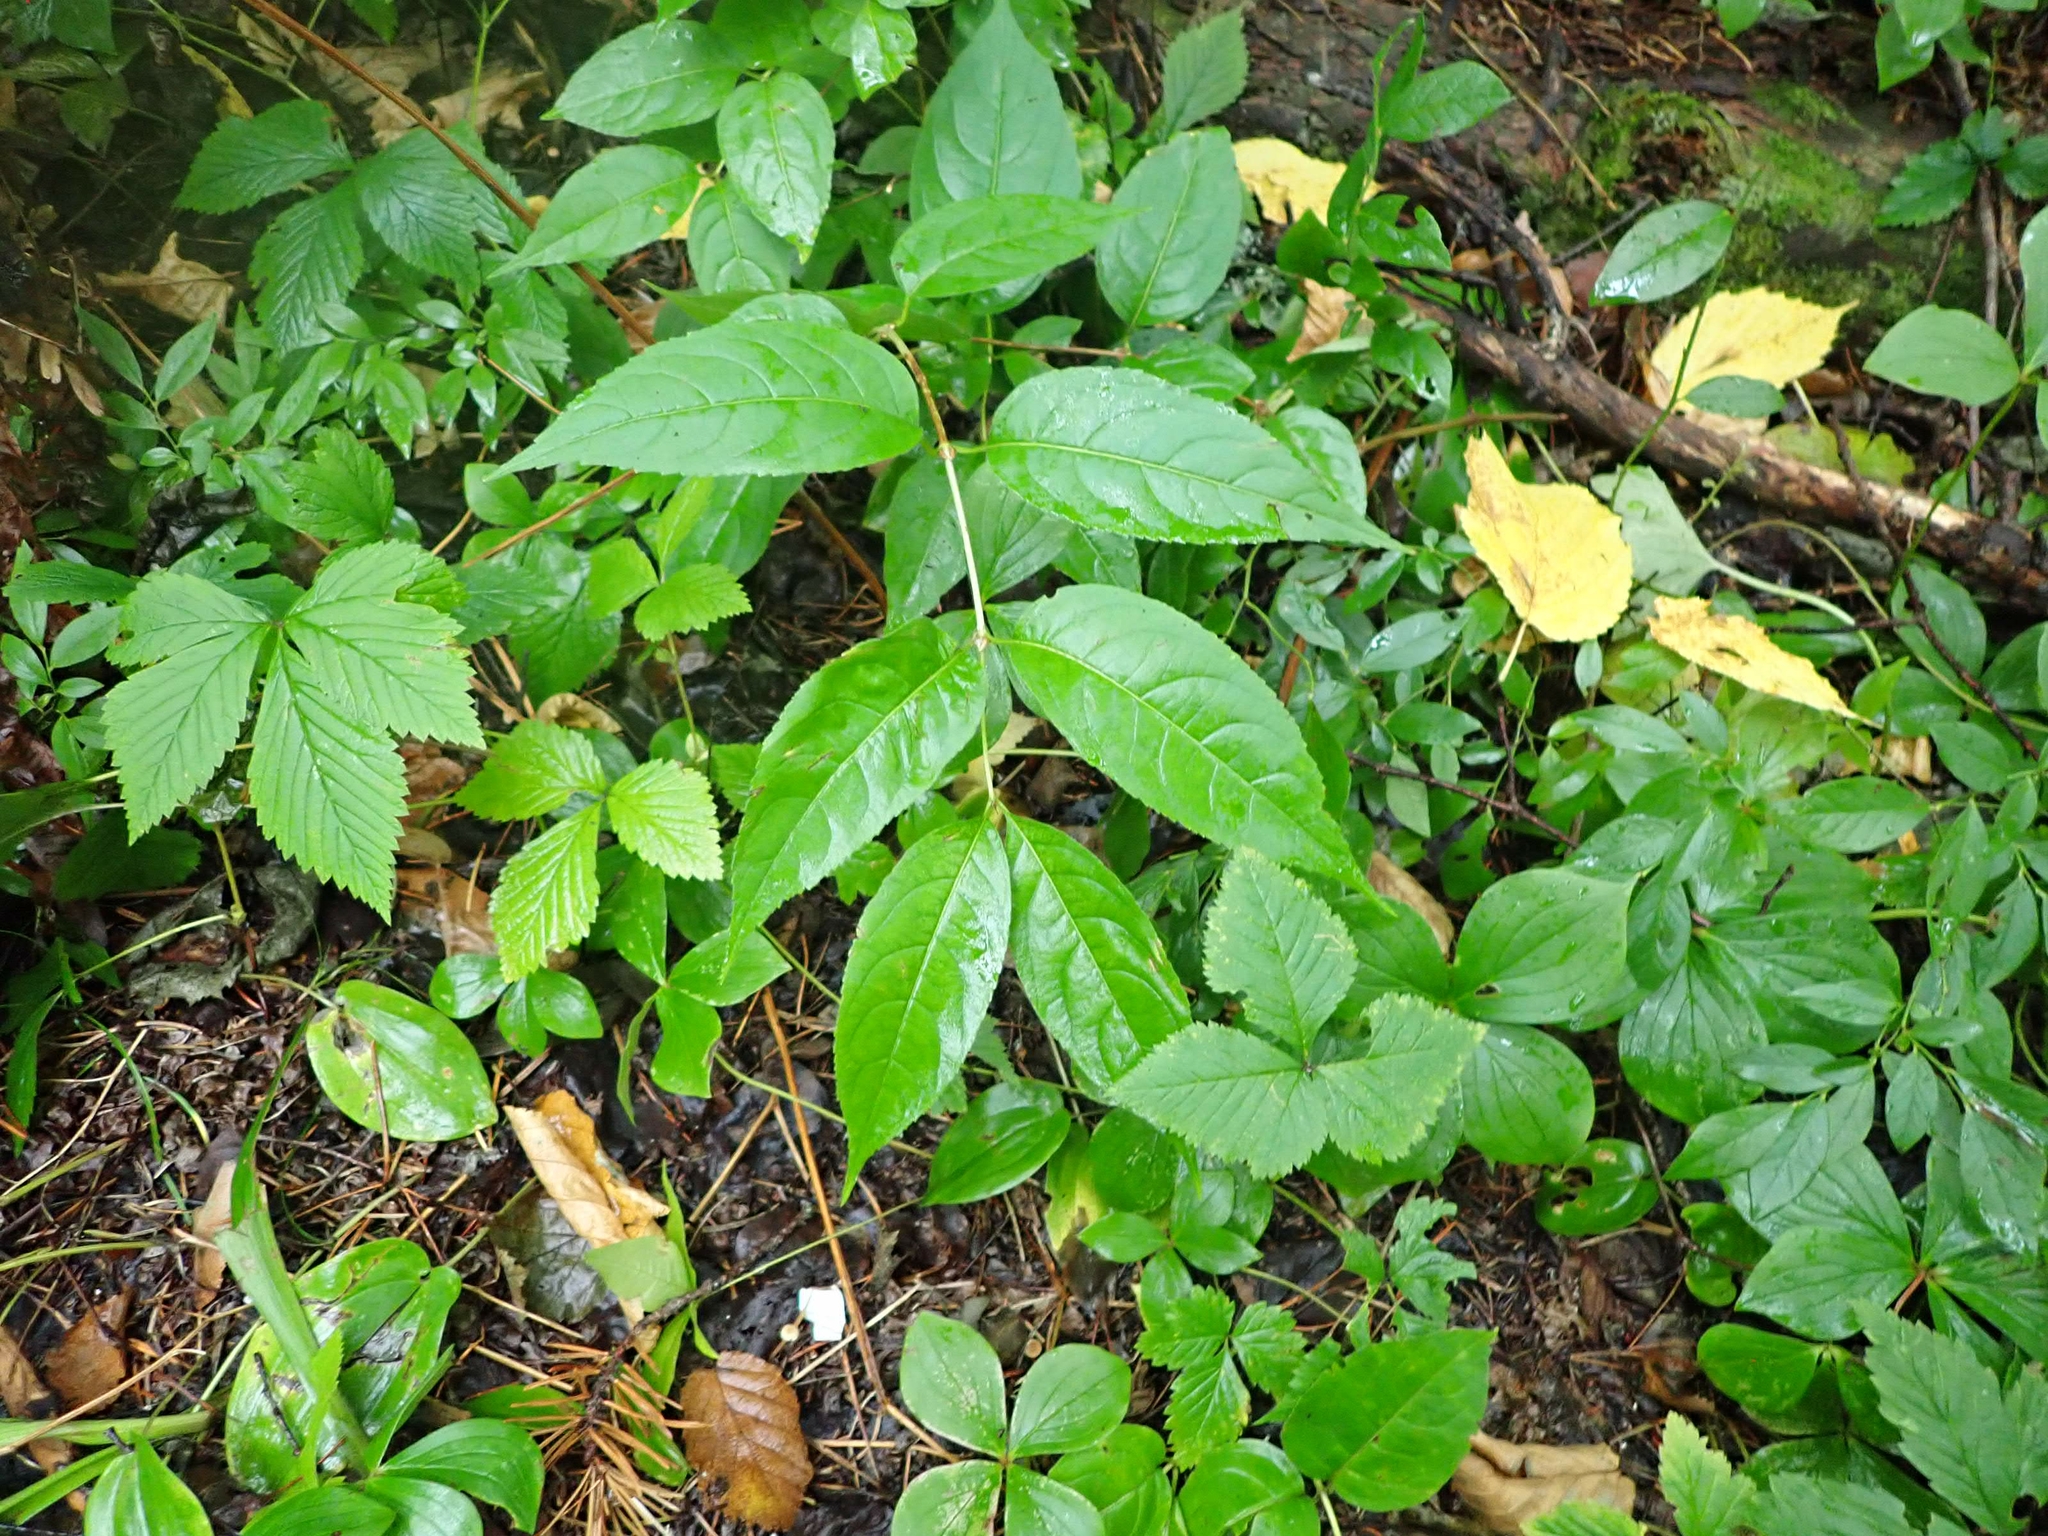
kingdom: Plantae
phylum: Tracheophyta
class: Magnoliopsida
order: Dipsacales
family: Caprifoliaceae
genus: Diervilla
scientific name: Diervilla lonicera
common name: Bush-honeysuckle
